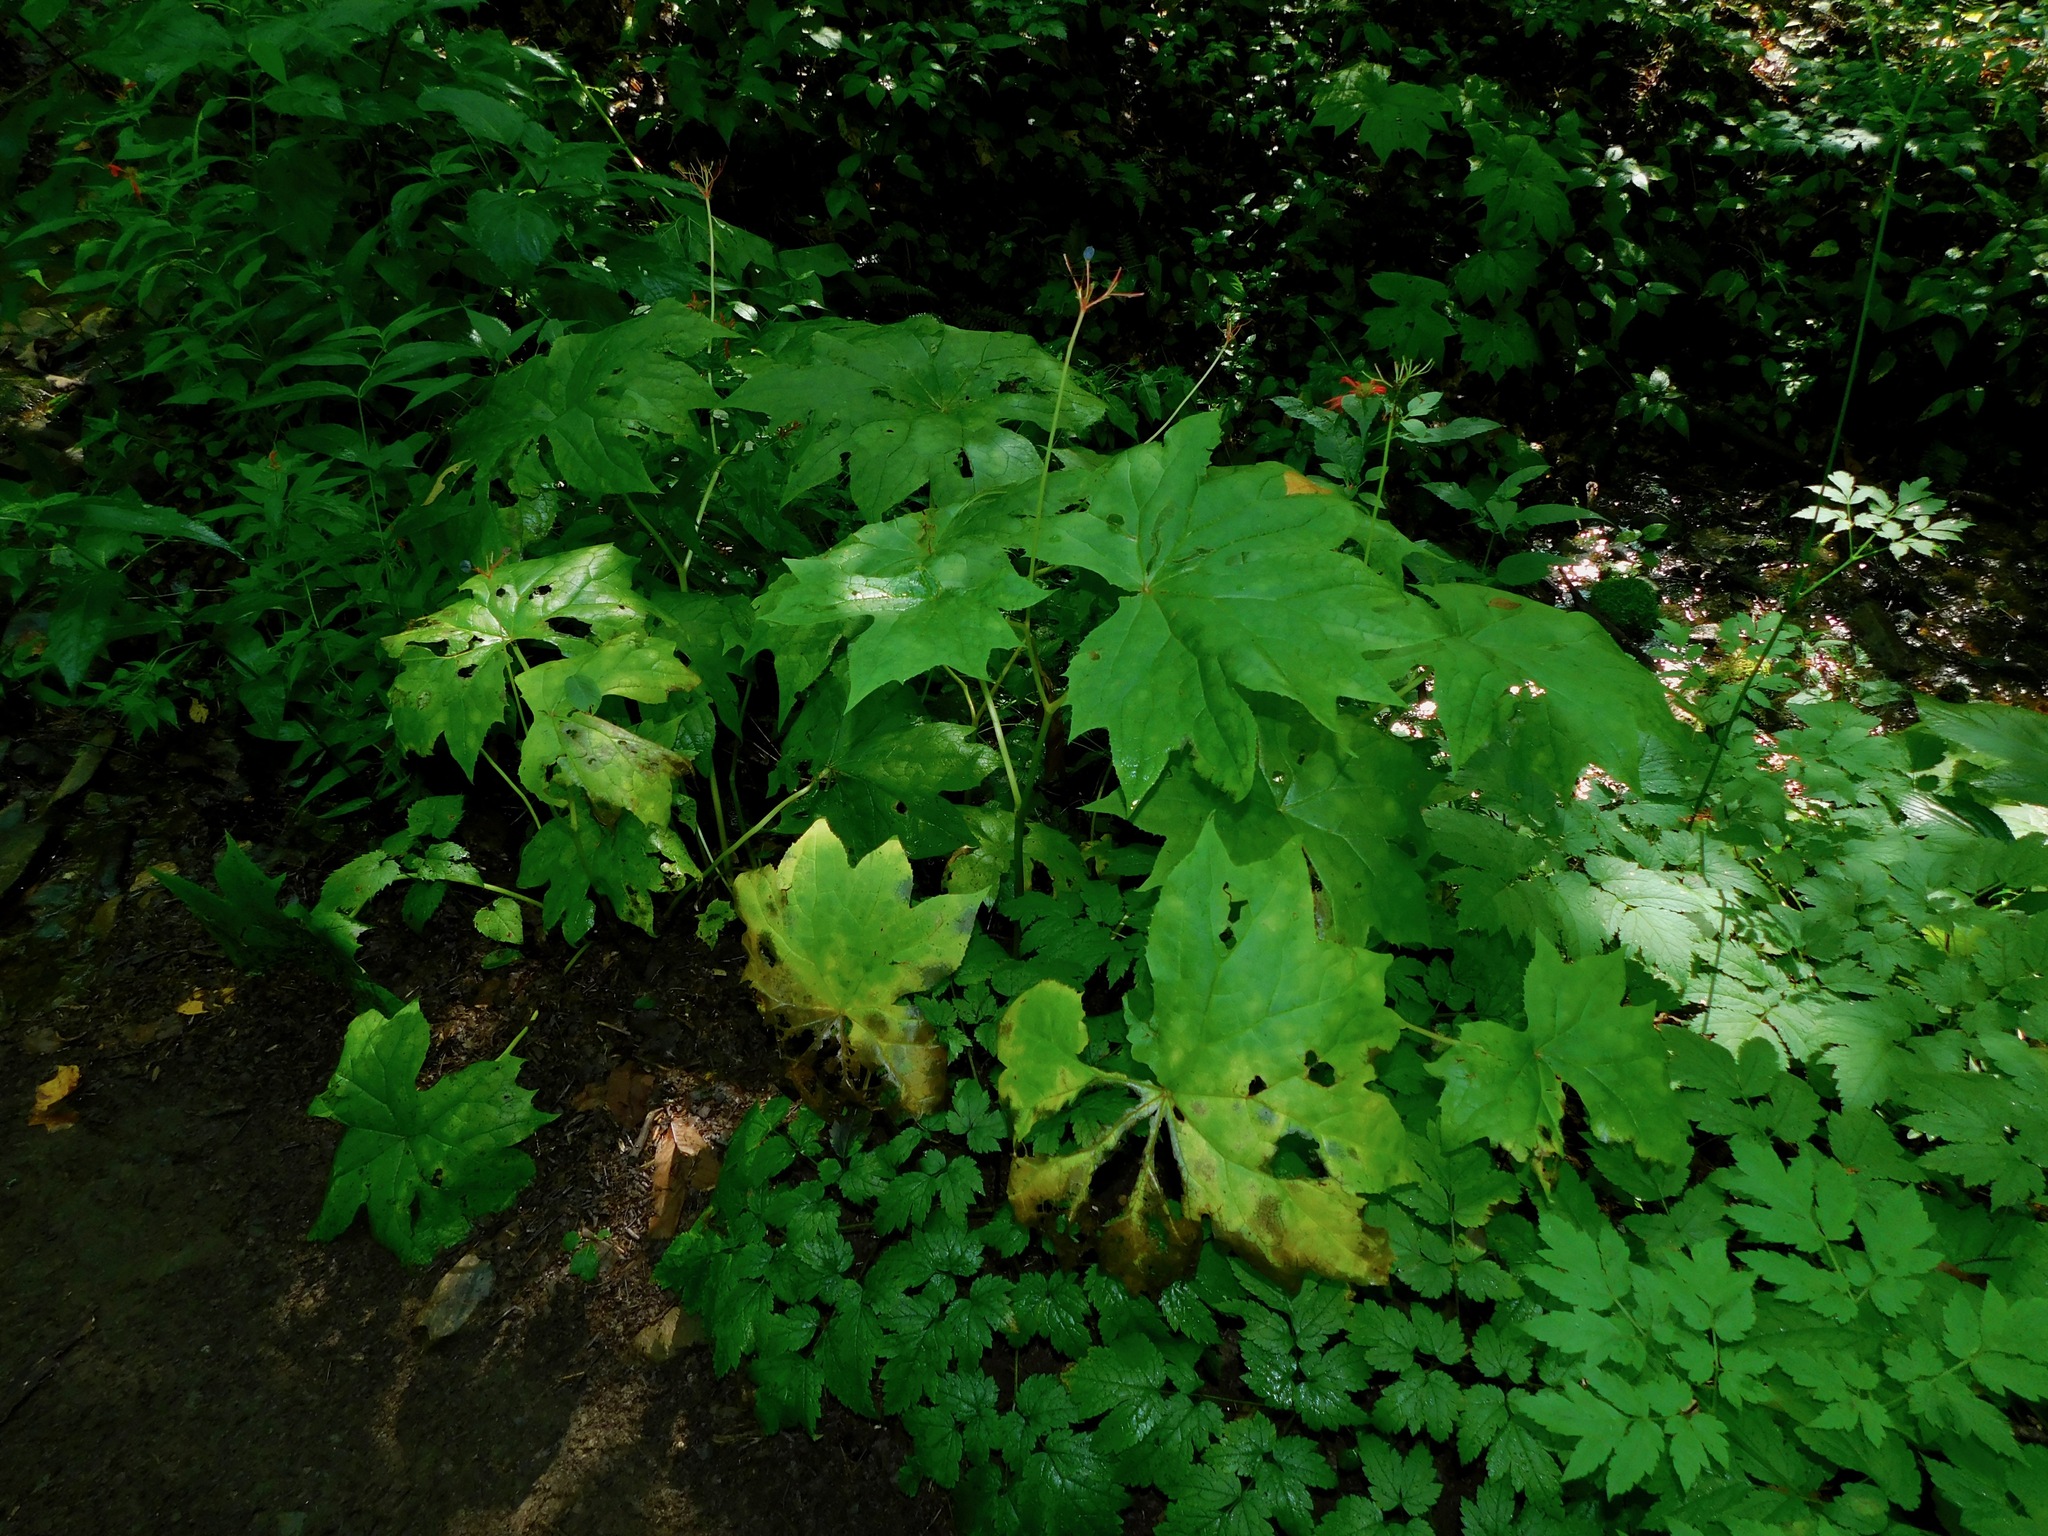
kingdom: Plantae
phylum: Tracheophyta
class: Magnoliopsida
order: Ranunculales
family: Berberidaceae
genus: Diphylleia
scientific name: Diphylleia cymosa
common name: Umbrella-leaf
